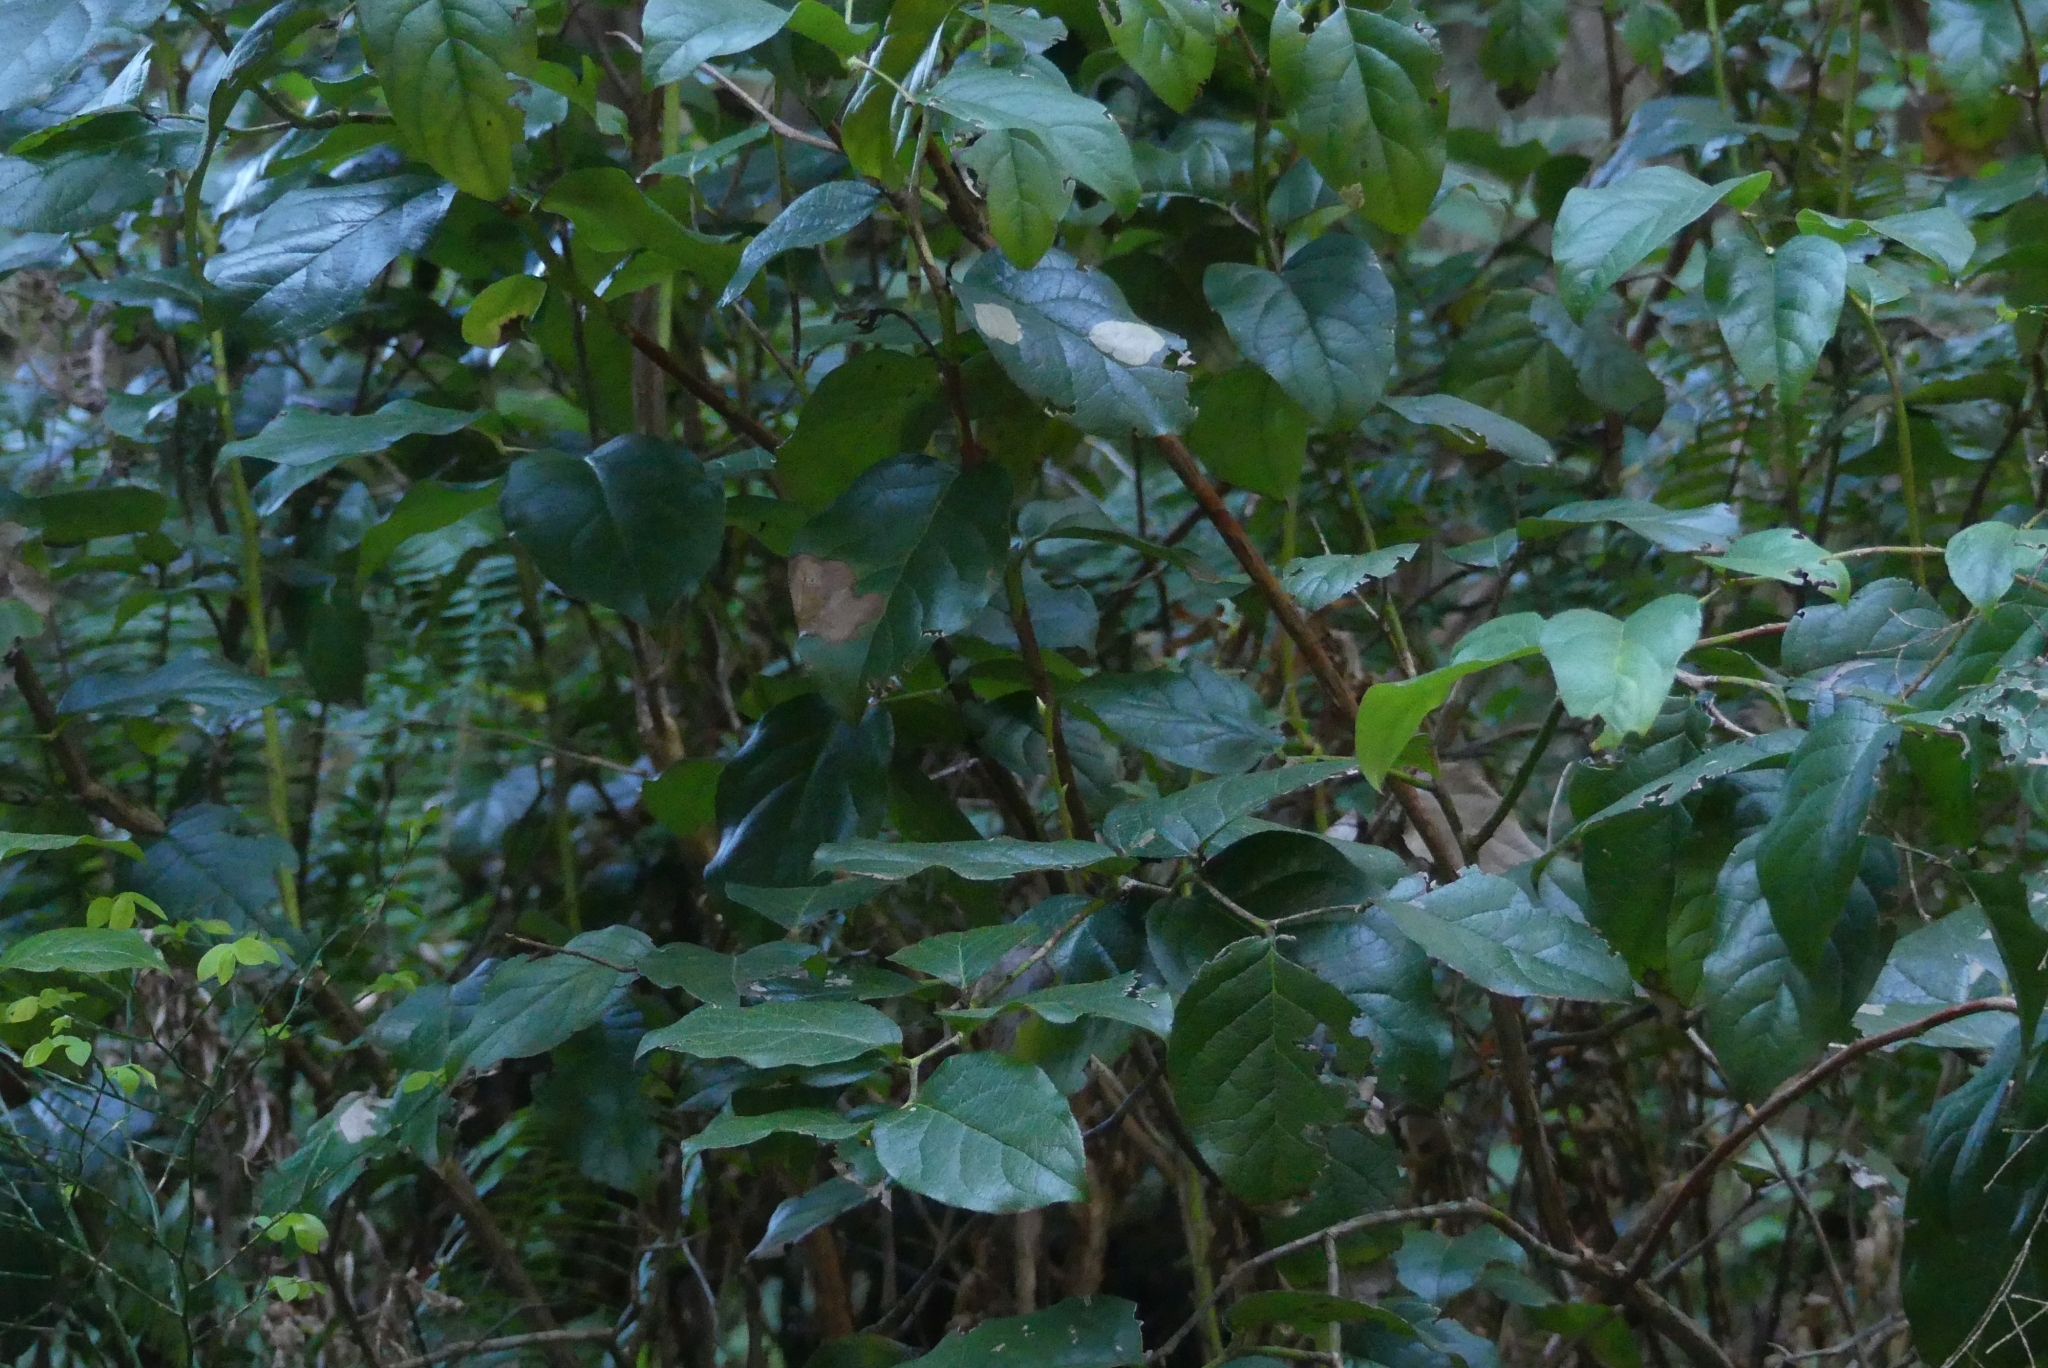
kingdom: Plantae
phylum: Tracheophyta
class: Magnoliopsida
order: Ericales
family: Ericaceae
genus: Gaultheria
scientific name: Gaultheria shallon
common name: Shallon
